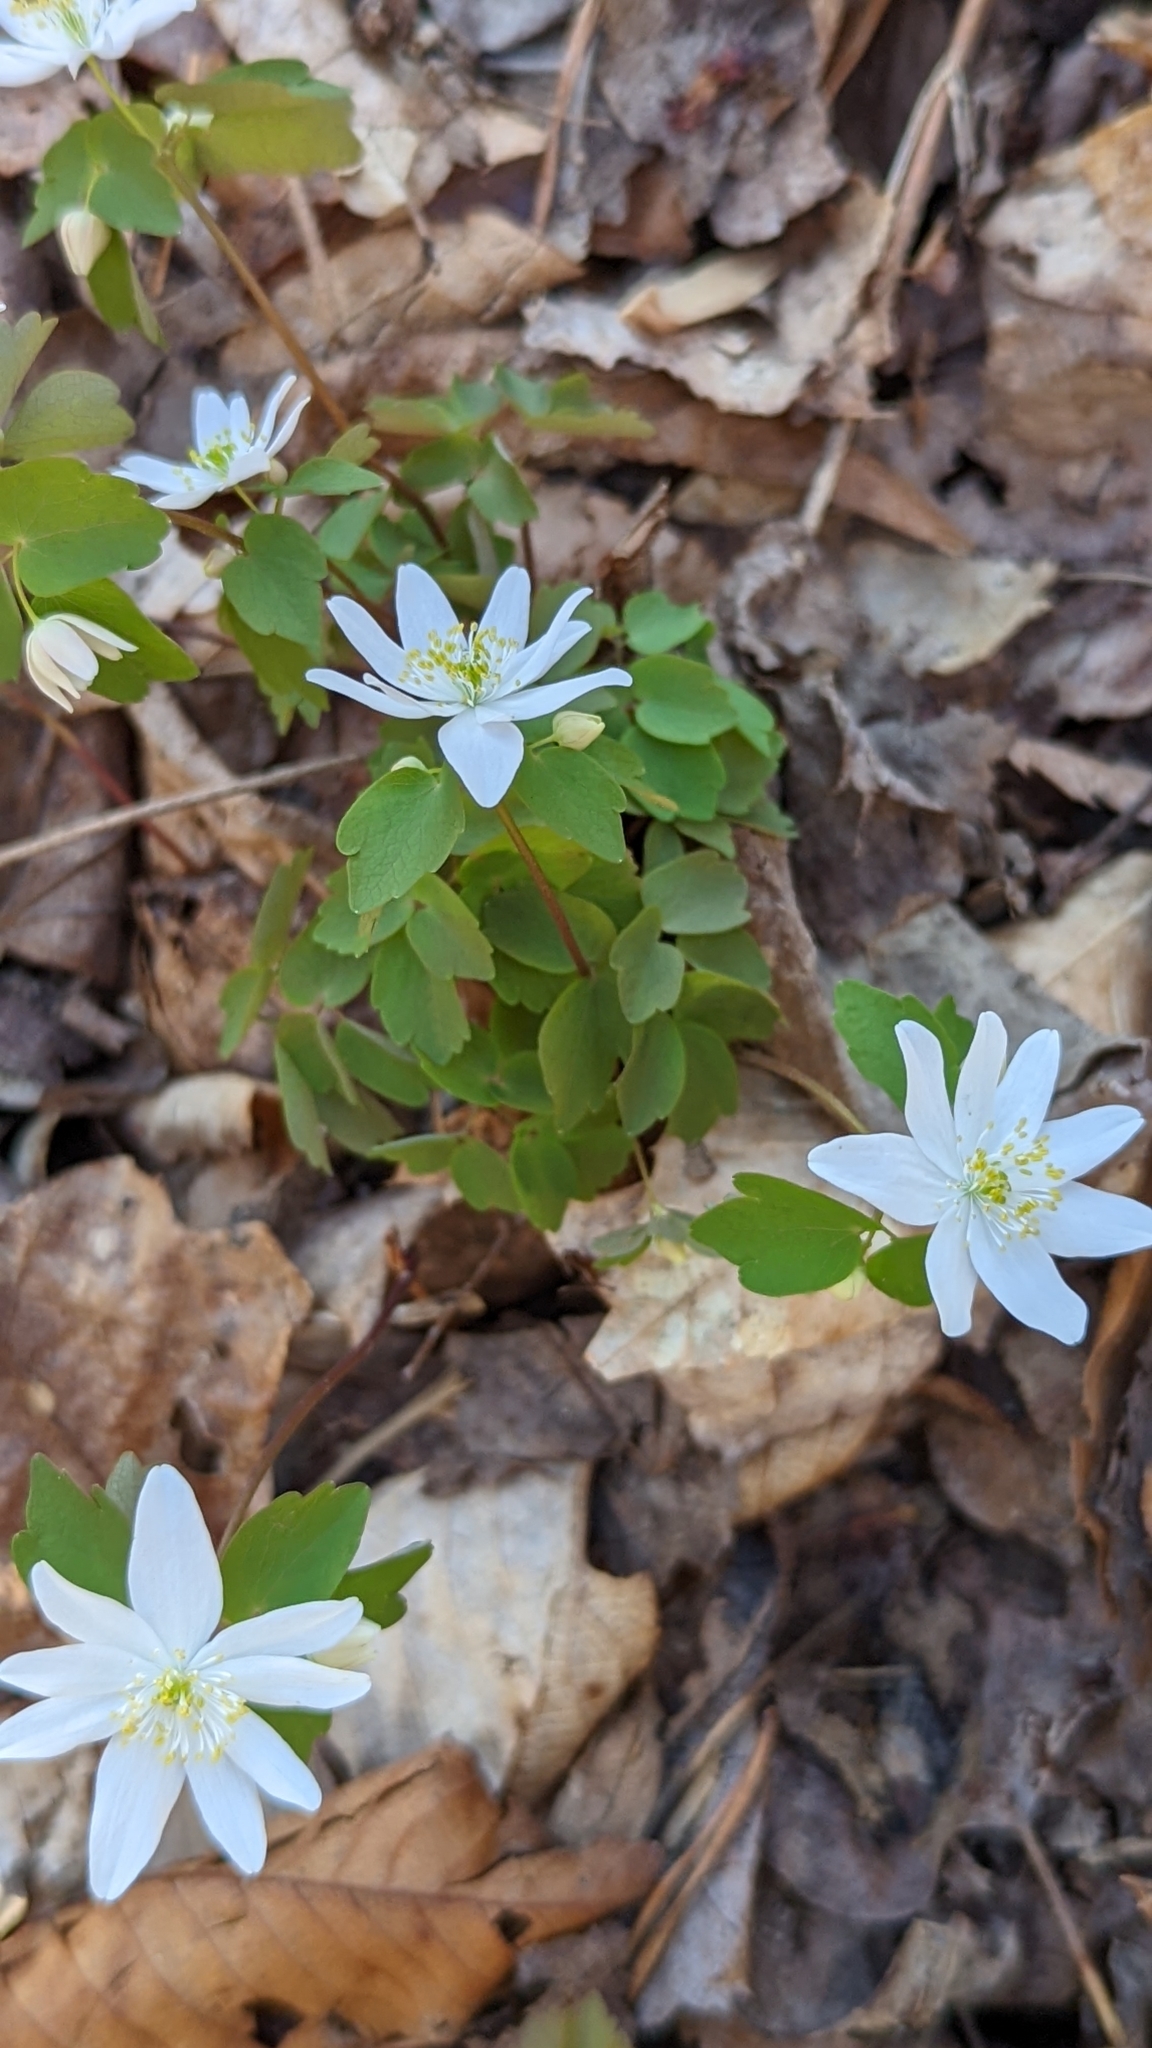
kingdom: Plantae
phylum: Tracheophyta
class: Magnoliopsida
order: Ranunculales
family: Ranunculaceae
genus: Thalictrum
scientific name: Thalictrum thalictroides
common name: Rue-anemone
